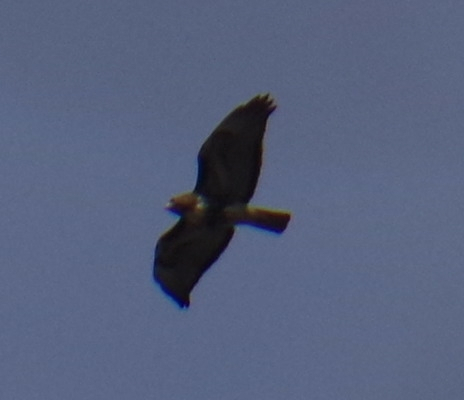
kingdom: Animalia
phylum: Chordata
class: Aves
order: Accipitriformes
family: Accipitridae
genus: Buteo
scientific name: Buteo jamaicensis
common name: Red-tailed hawk
